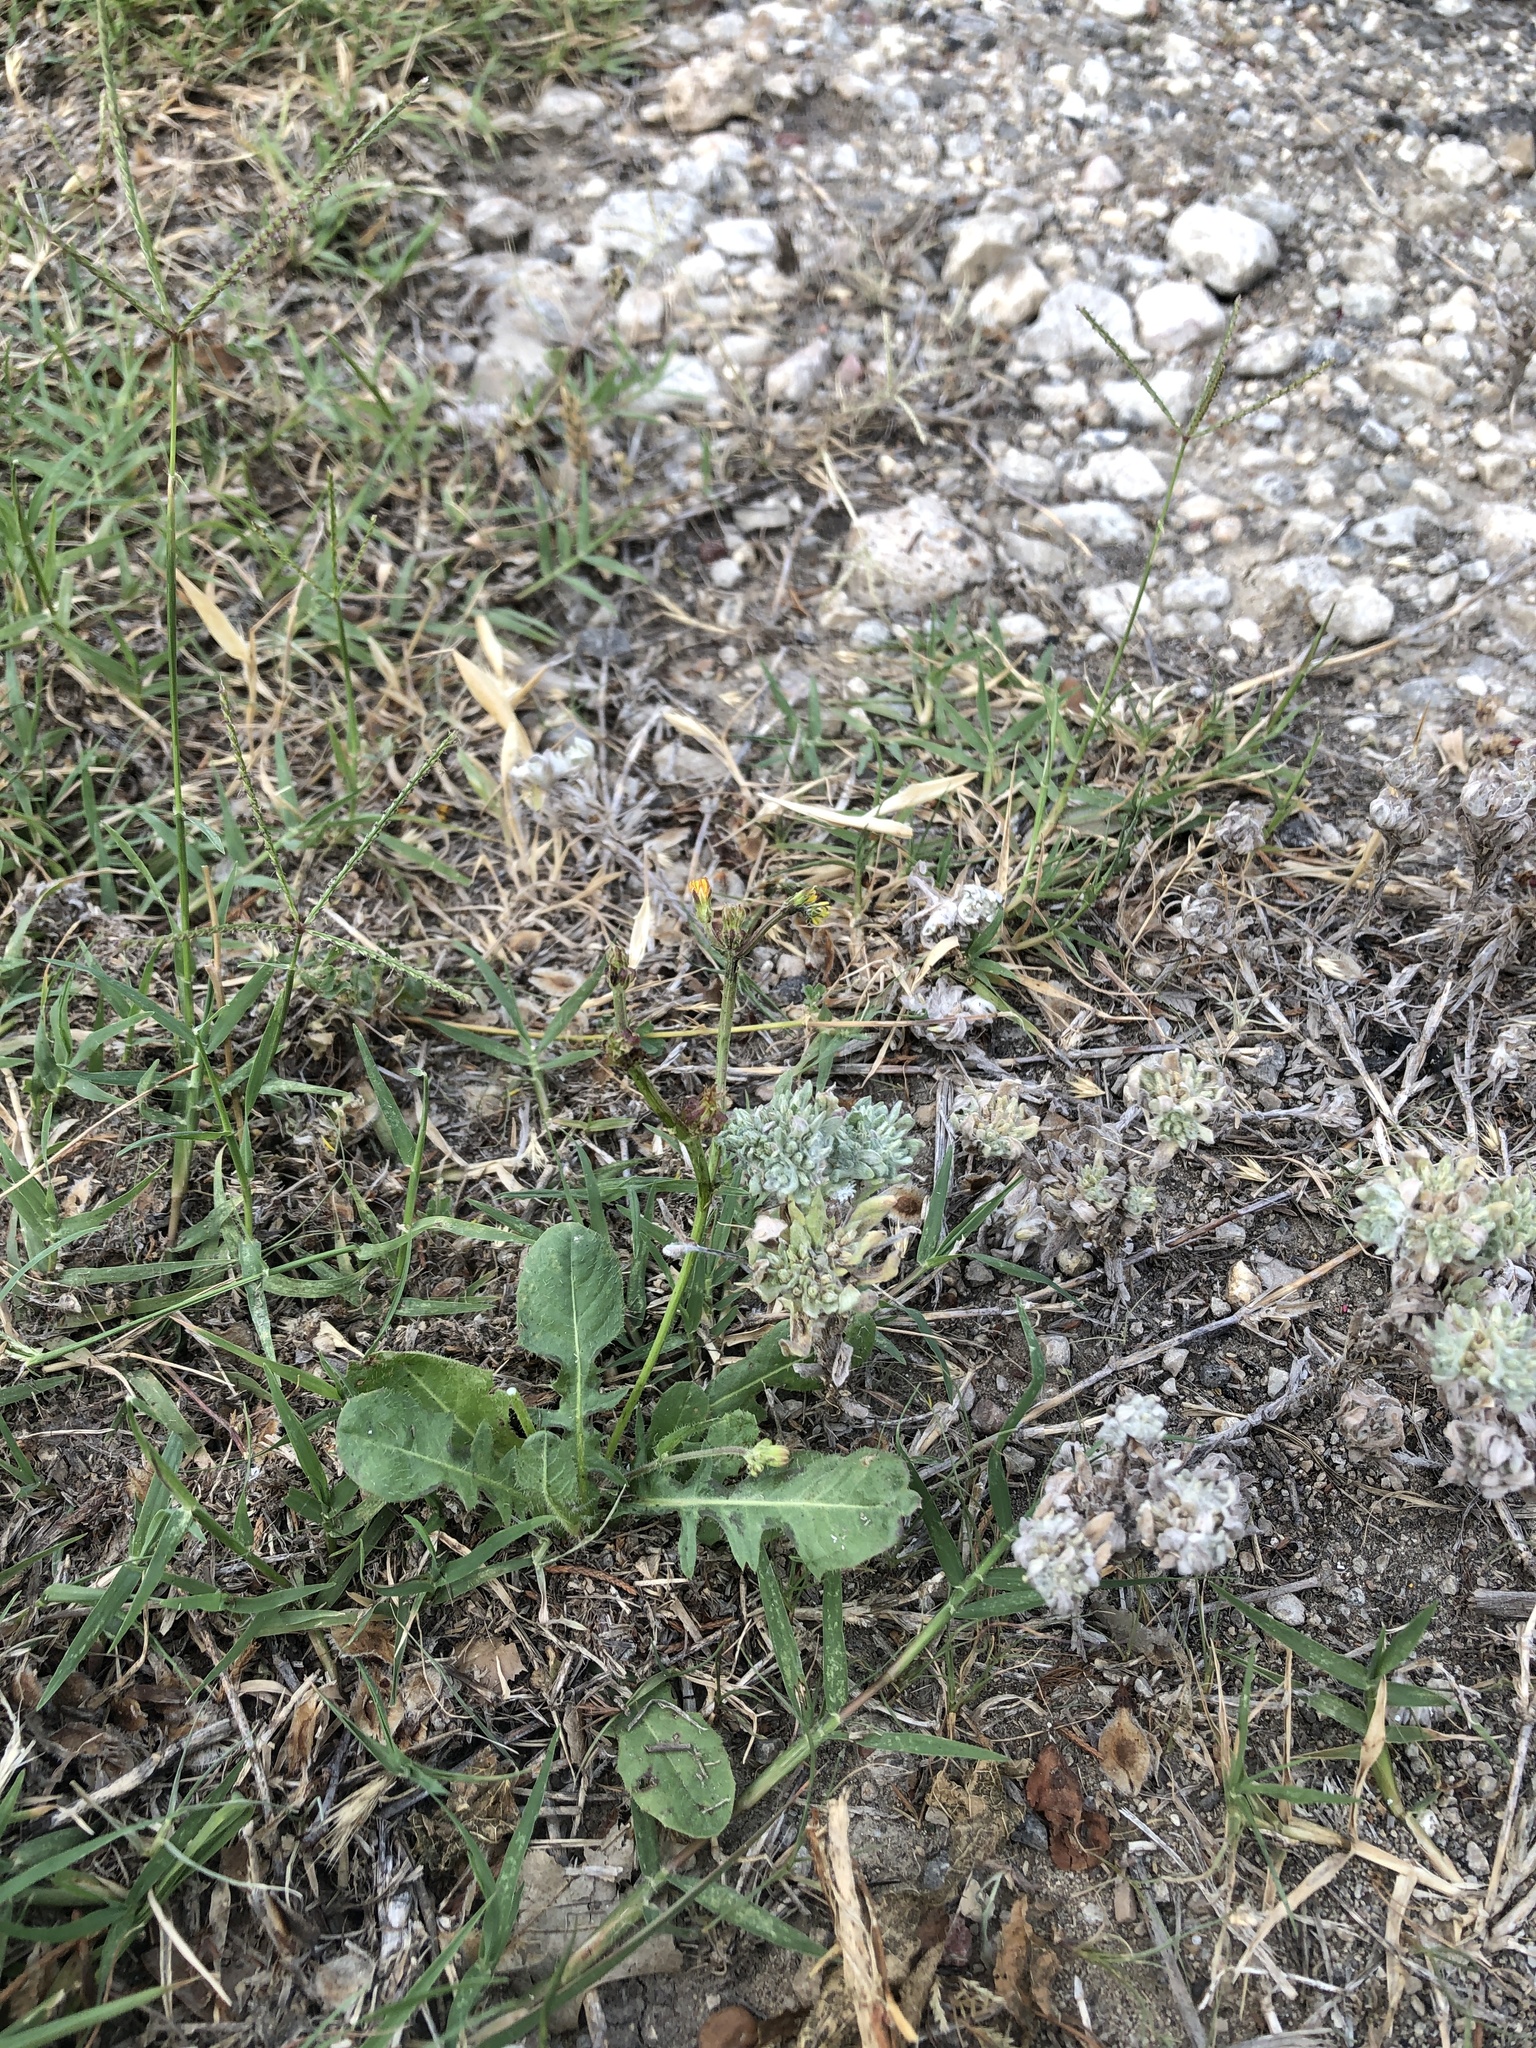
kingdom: Plantae
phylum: Tracheophyta
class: Magnoliopsida
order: Asterales
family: Asteraceae
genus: Crepis
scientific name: Crepis zacintha
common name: Striped hawksbeard
